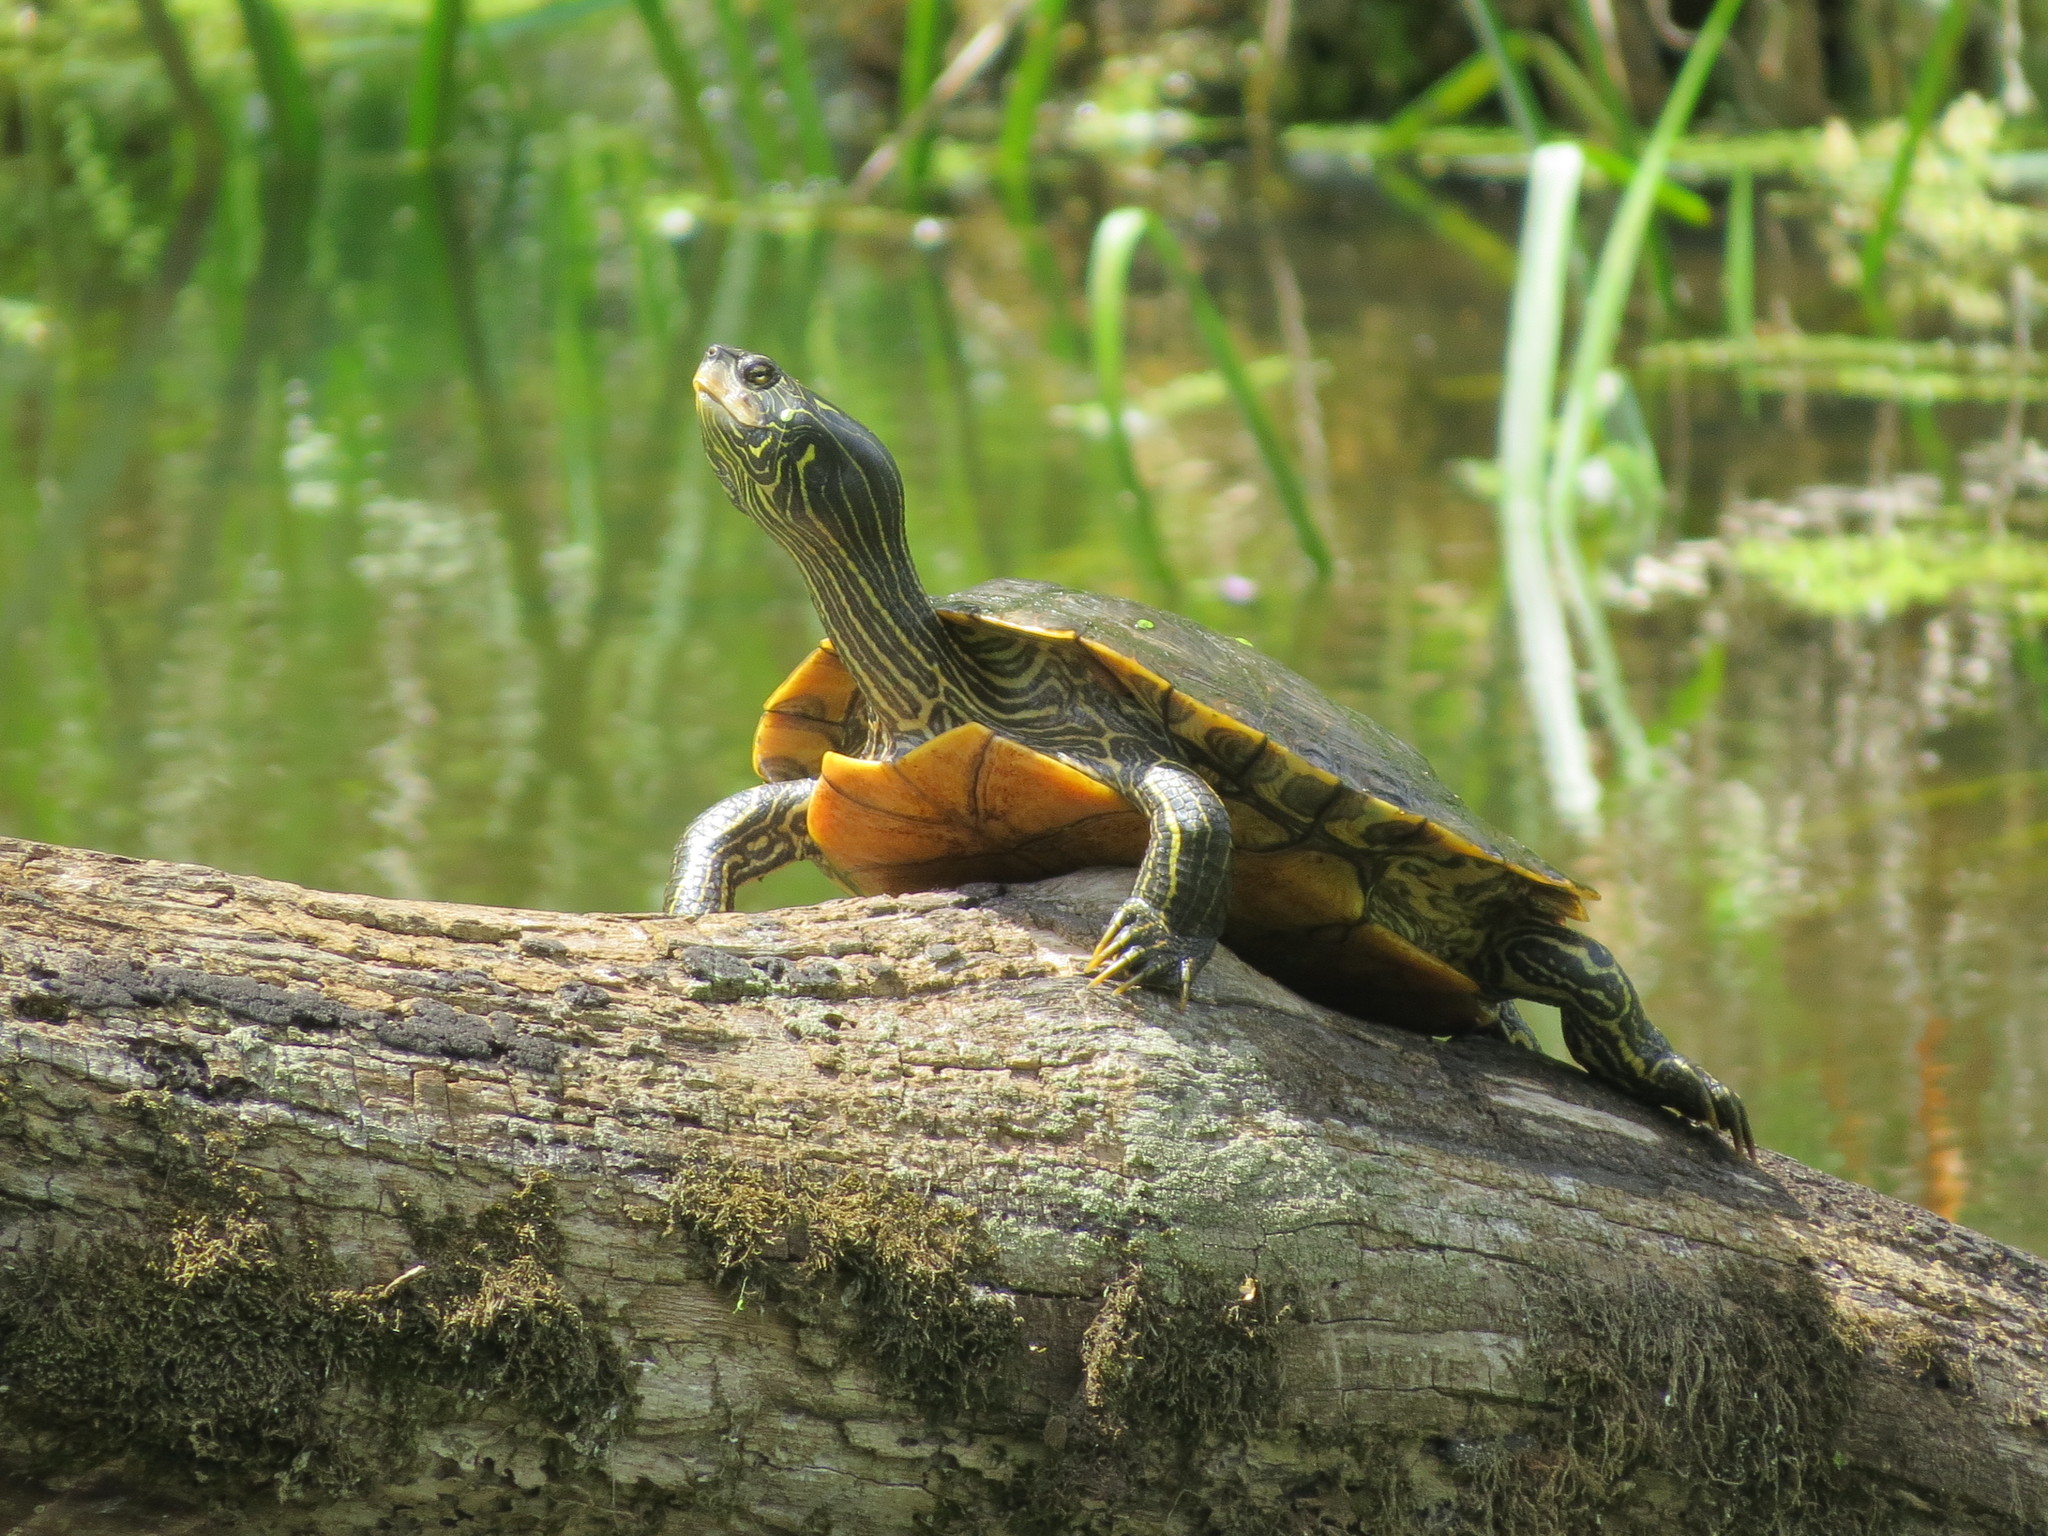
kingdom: Animalia
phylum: Chordata
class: Testudines
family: Emydidae
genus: Graptemys
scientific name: Graptemys geographica
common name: Common map turtle
